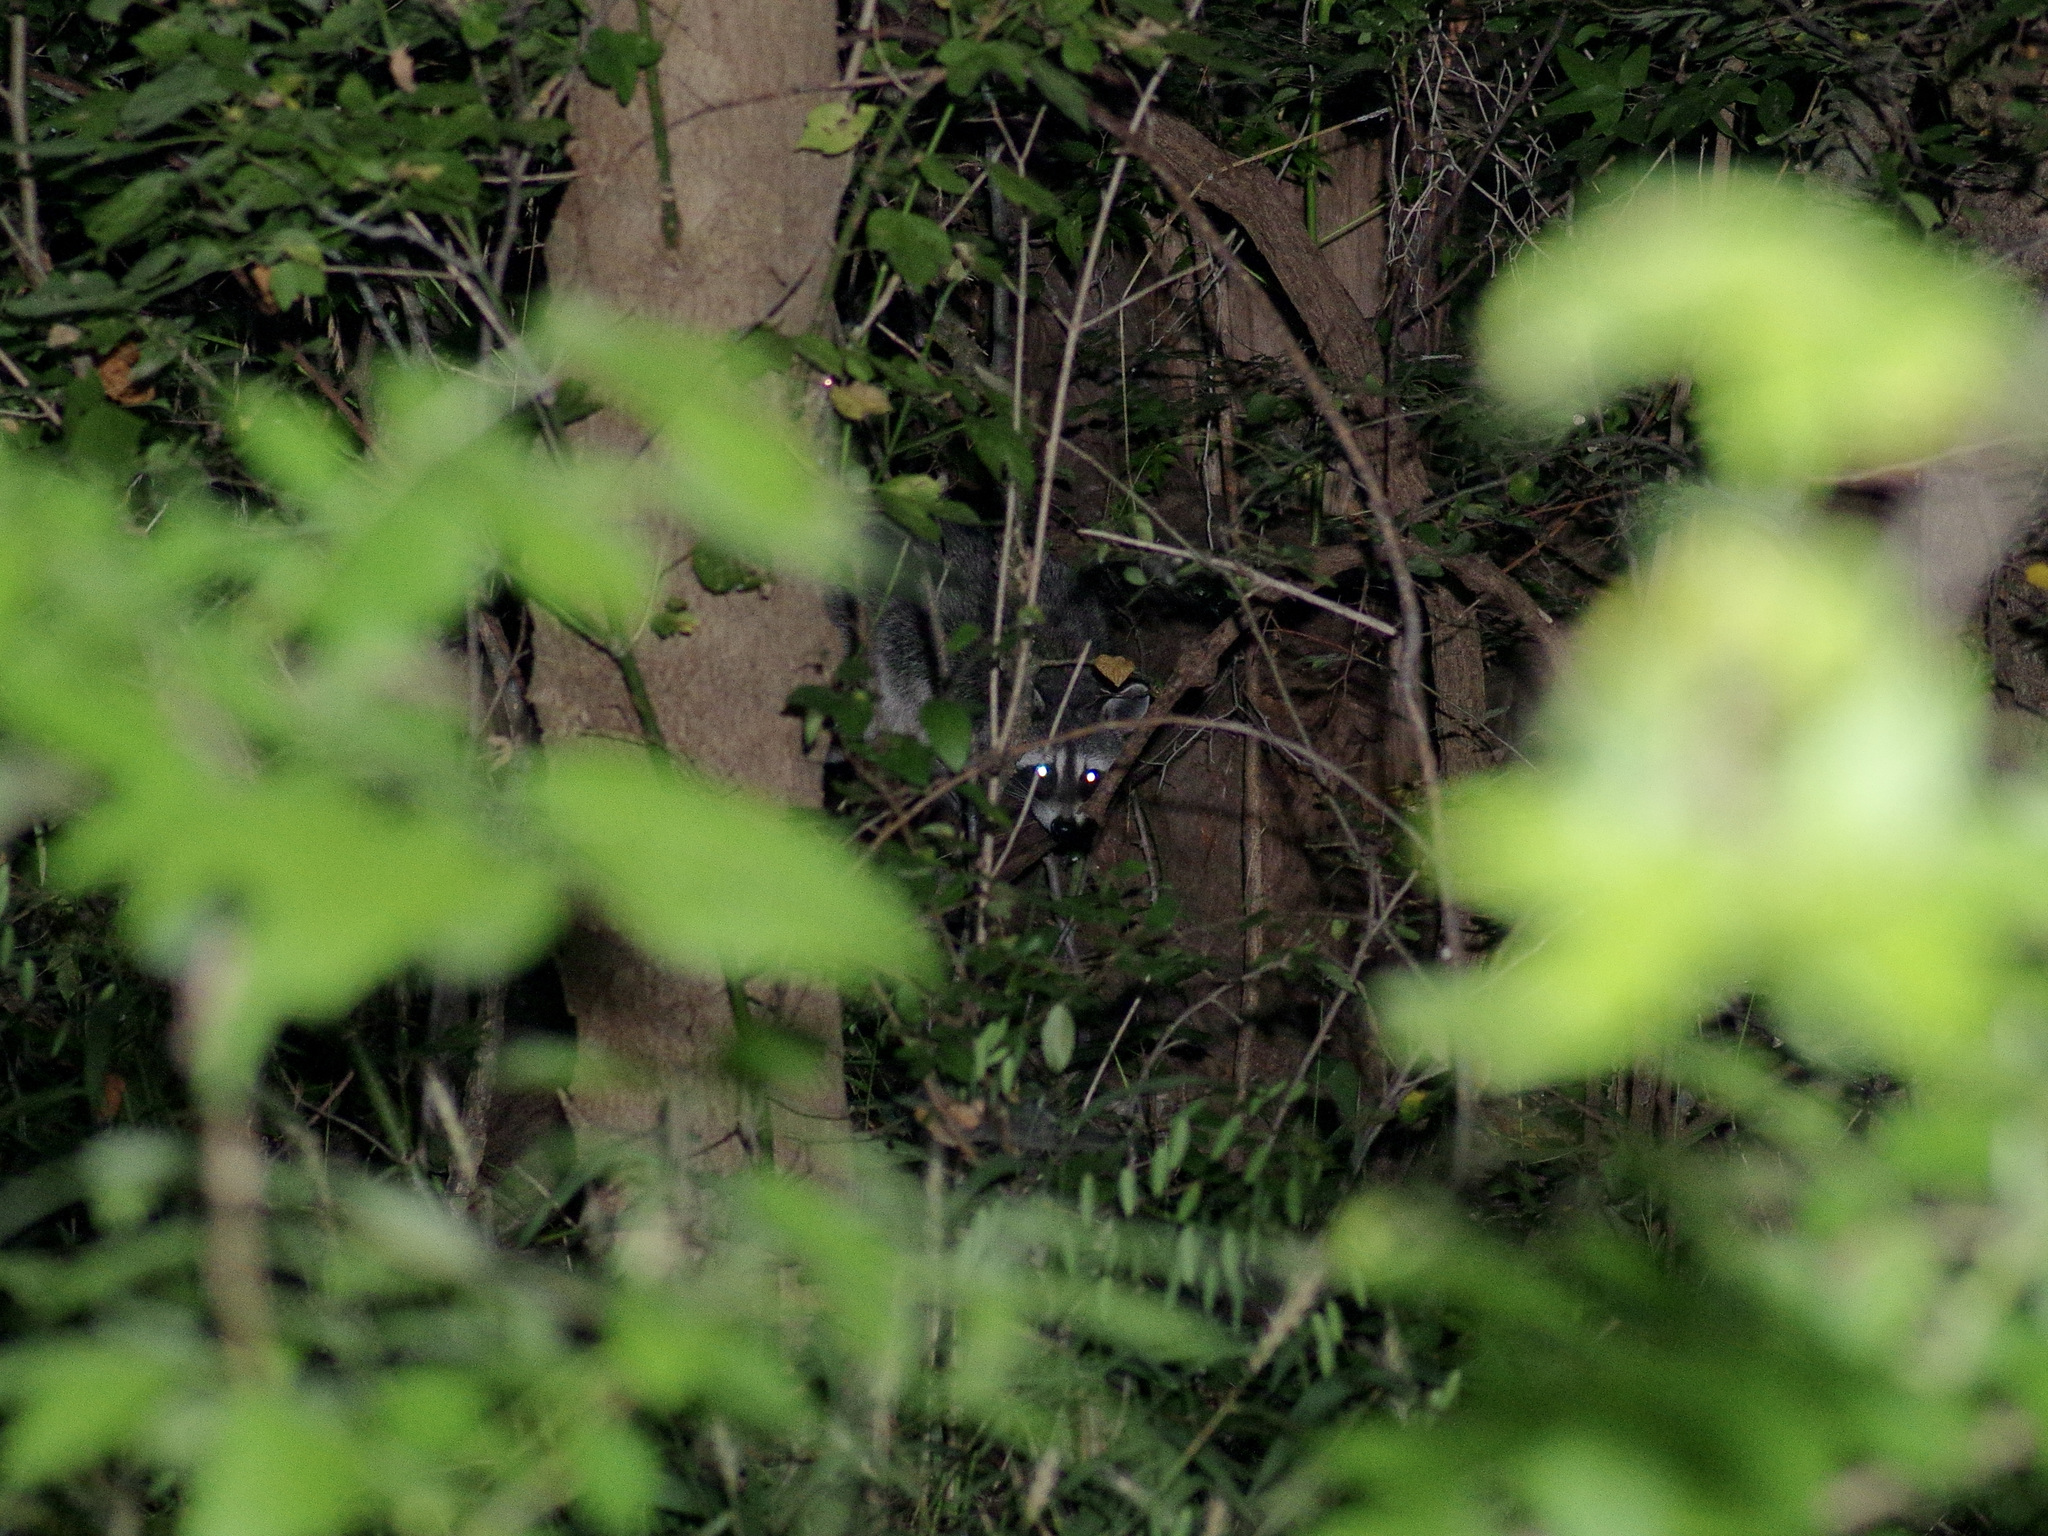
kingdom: Animalia
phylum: Chordata
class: Mammalia
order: Carnivora
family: Procyonidae
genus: Procyon
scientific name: Procyon lotor
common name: Raccoon
